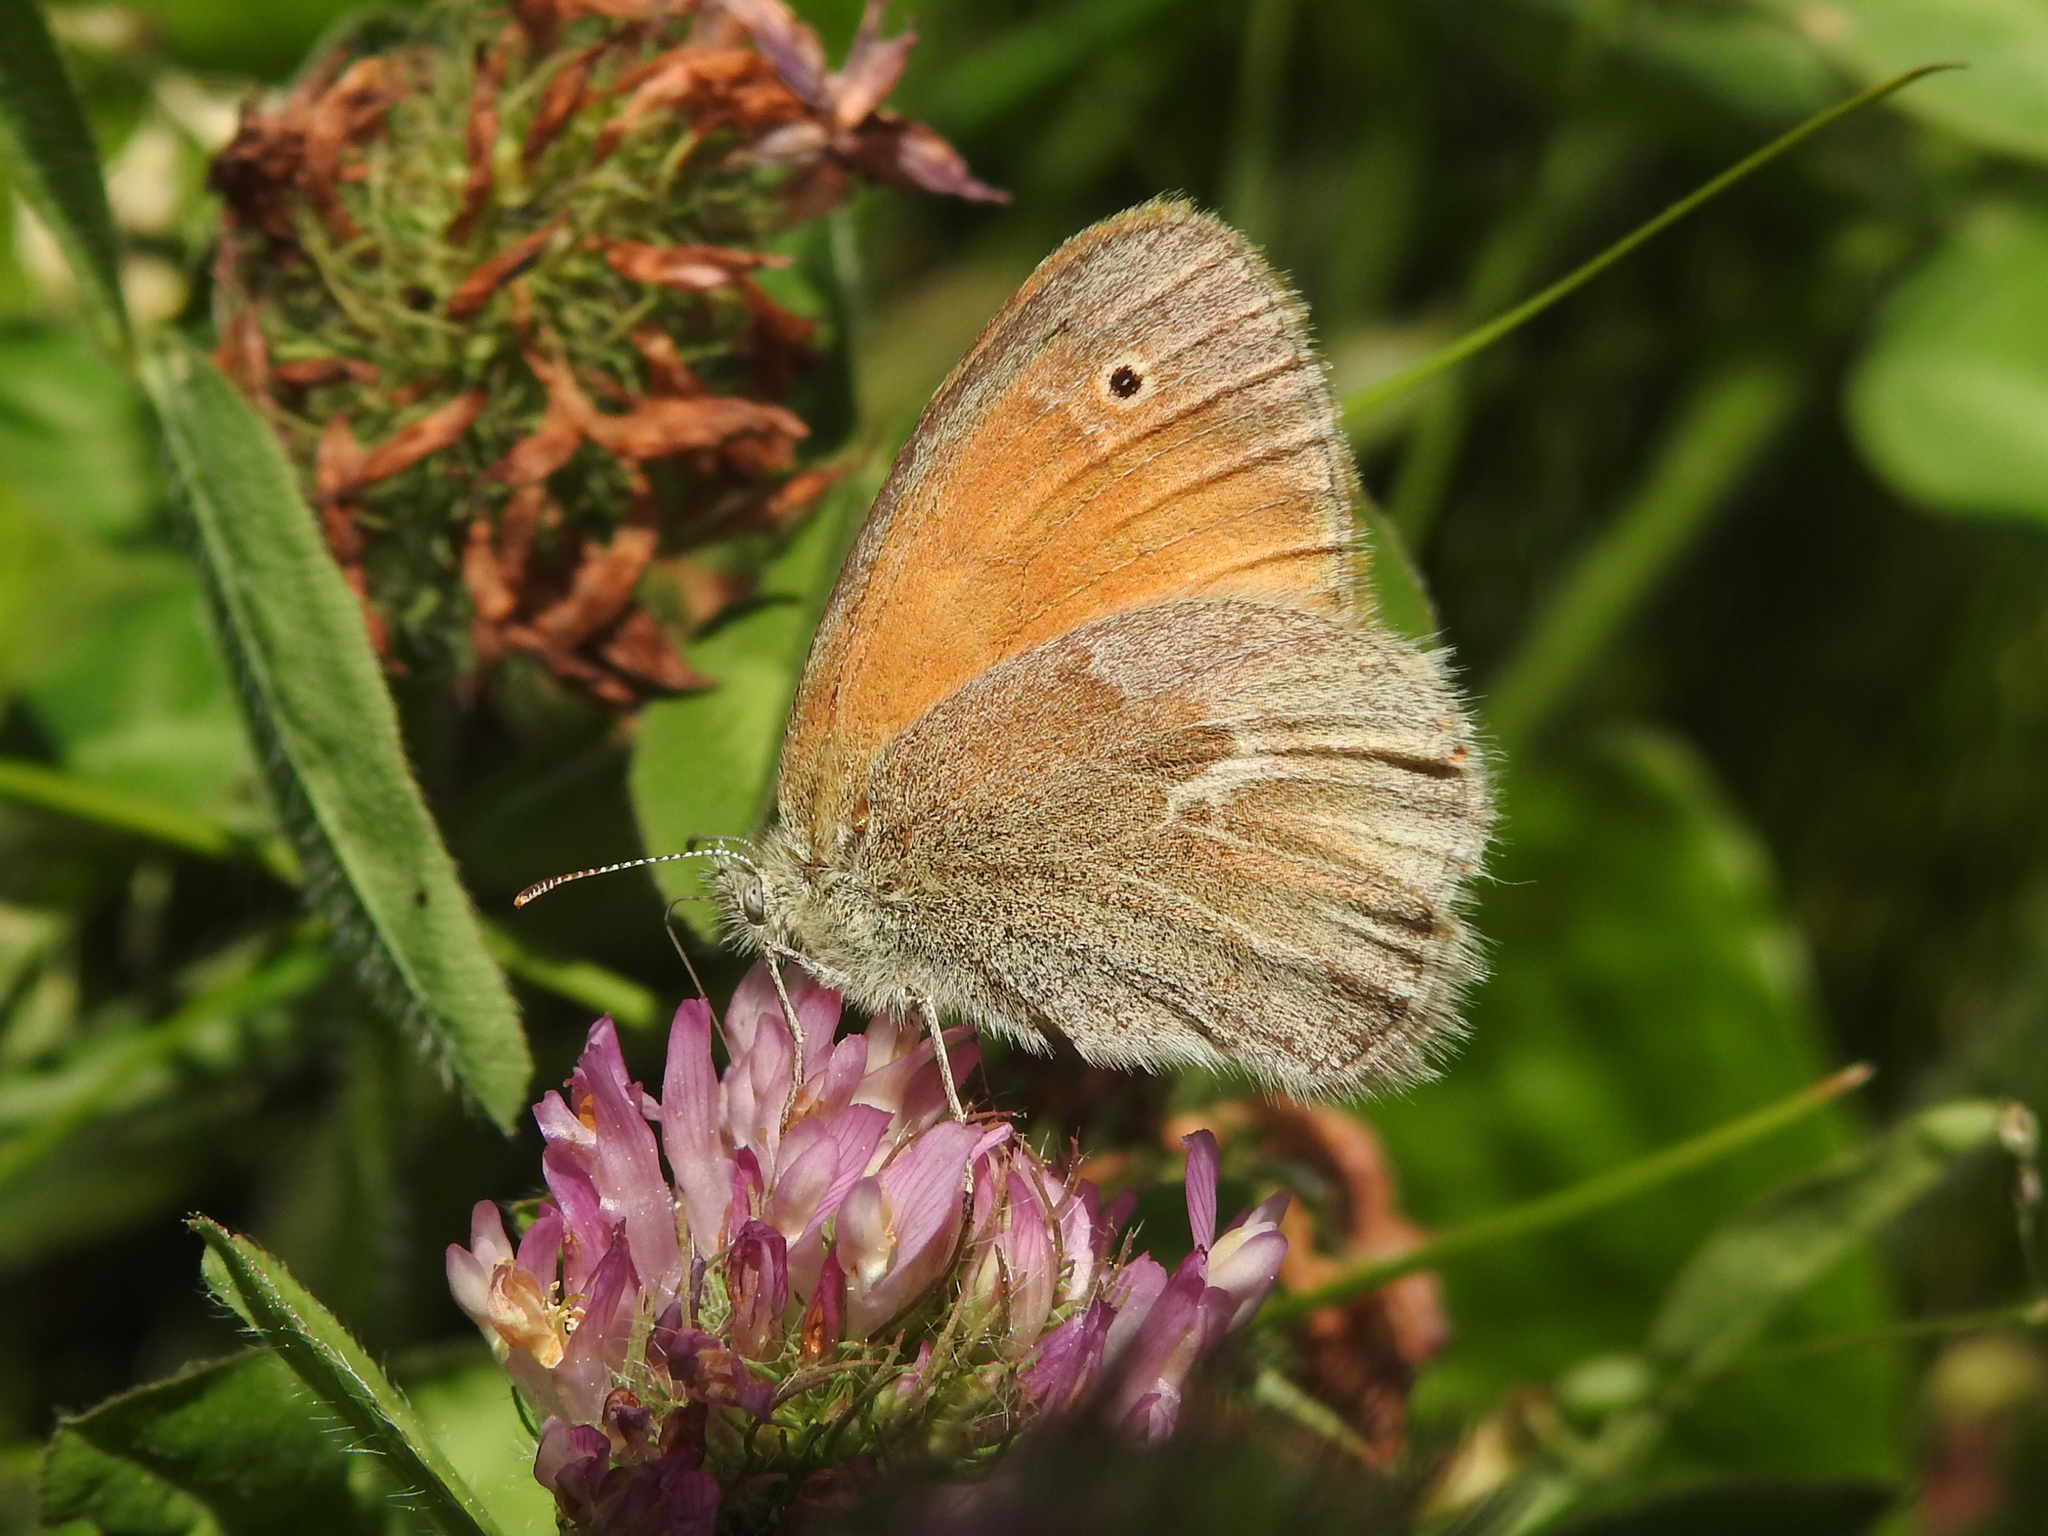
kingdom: Animalia
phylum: Arthropoda
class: Insecta
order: Lepidoptera
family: Nymphalidae
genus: Coenonympha
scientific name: Coenonympha california
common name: Common ringlet
